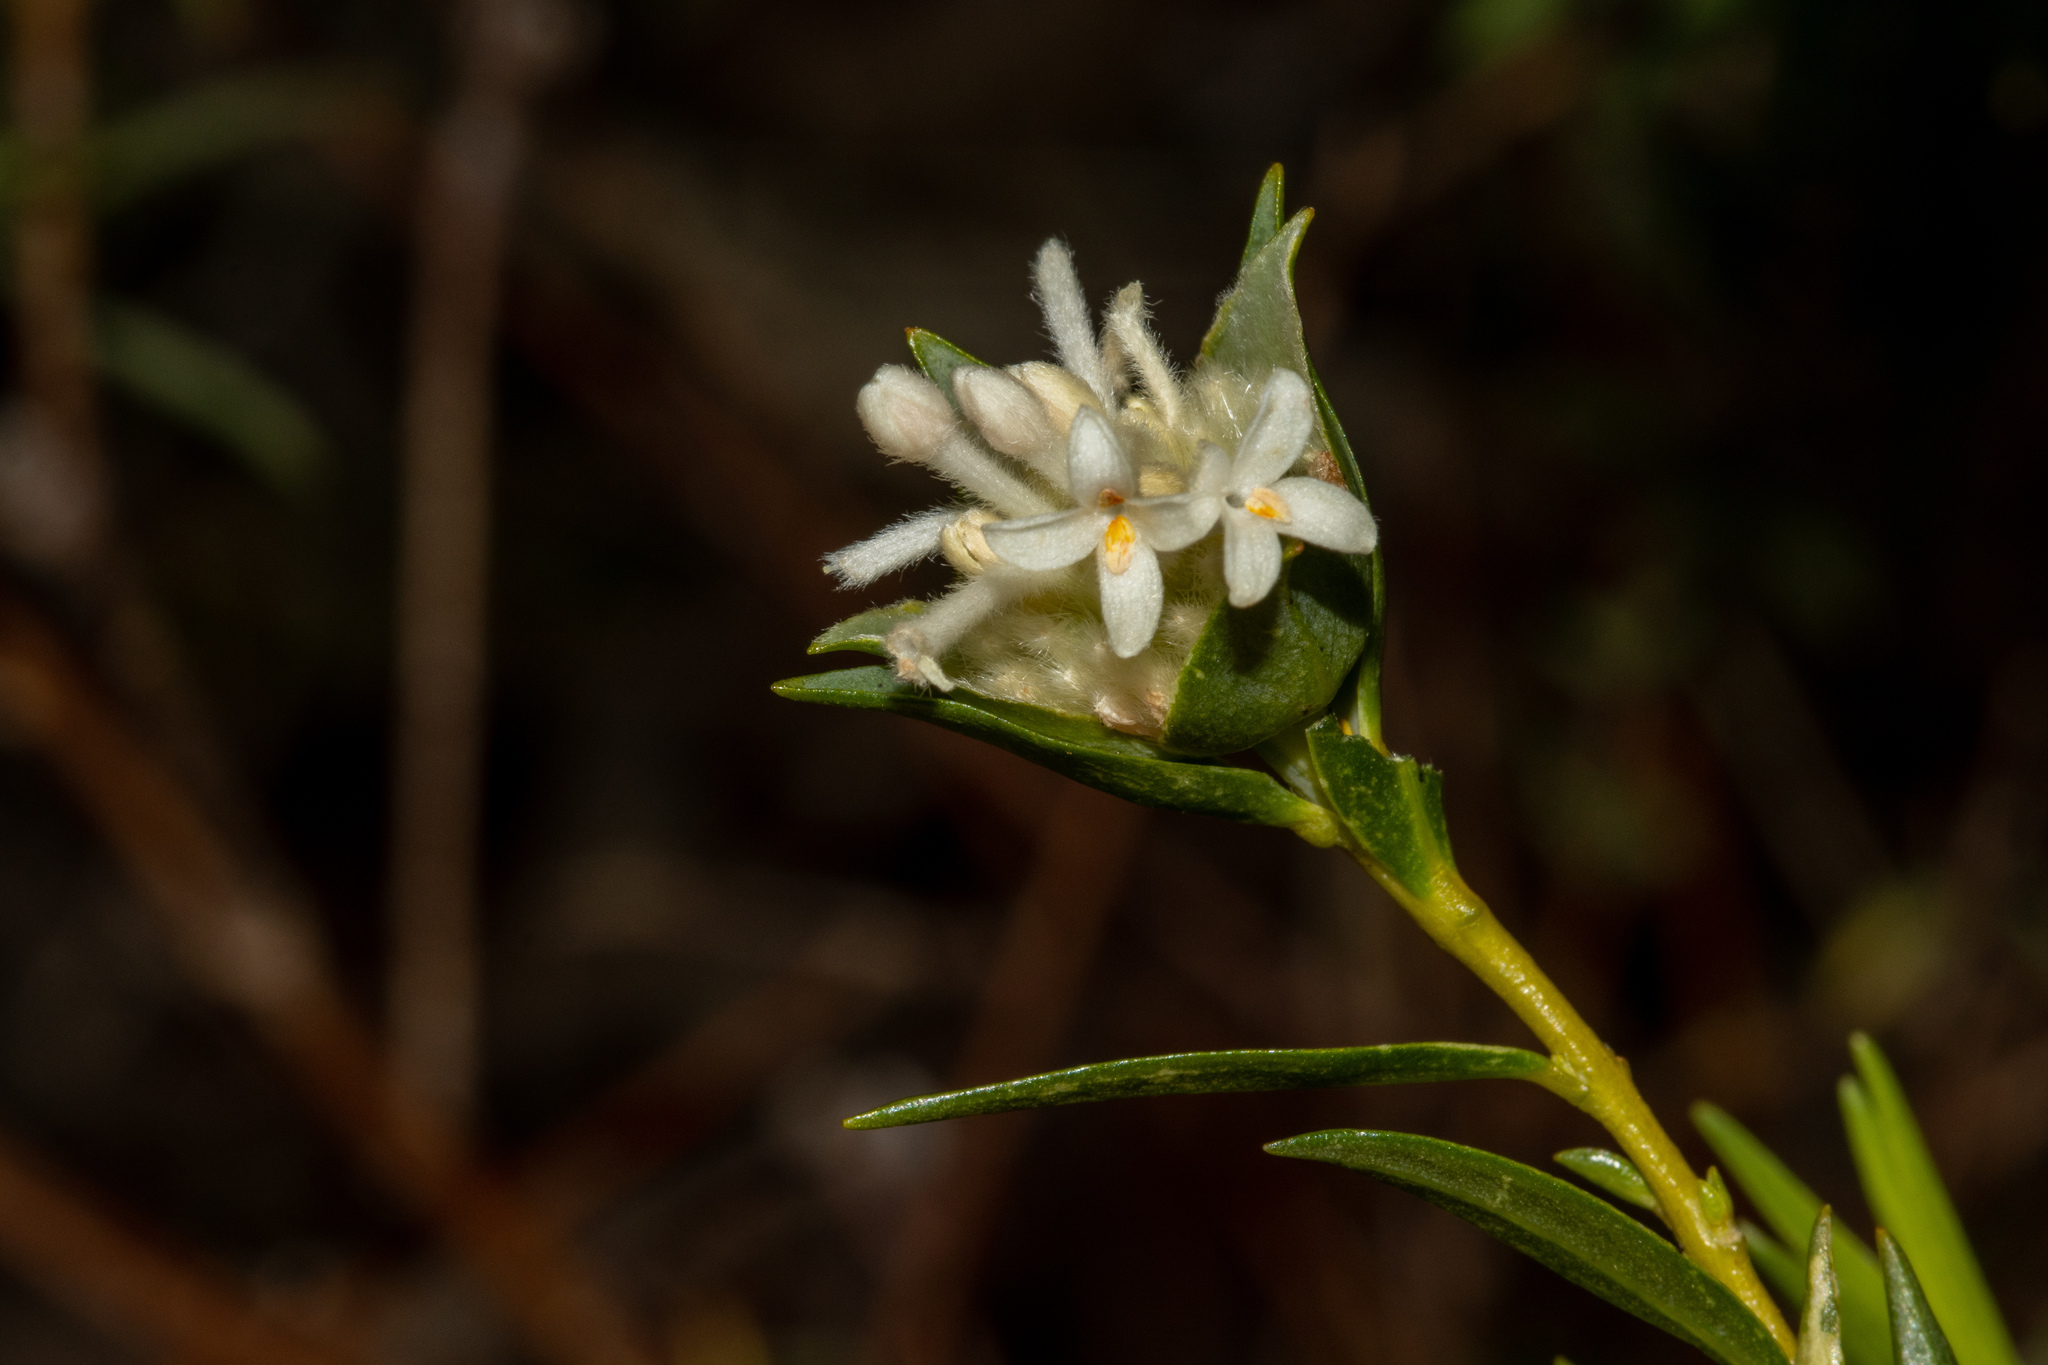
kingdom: Plantae
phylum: Tracheophyta
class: Magnoliopsida
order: Malvales
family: Thymelaeaceae
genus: Pimelea
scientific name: Pimelea stricta
